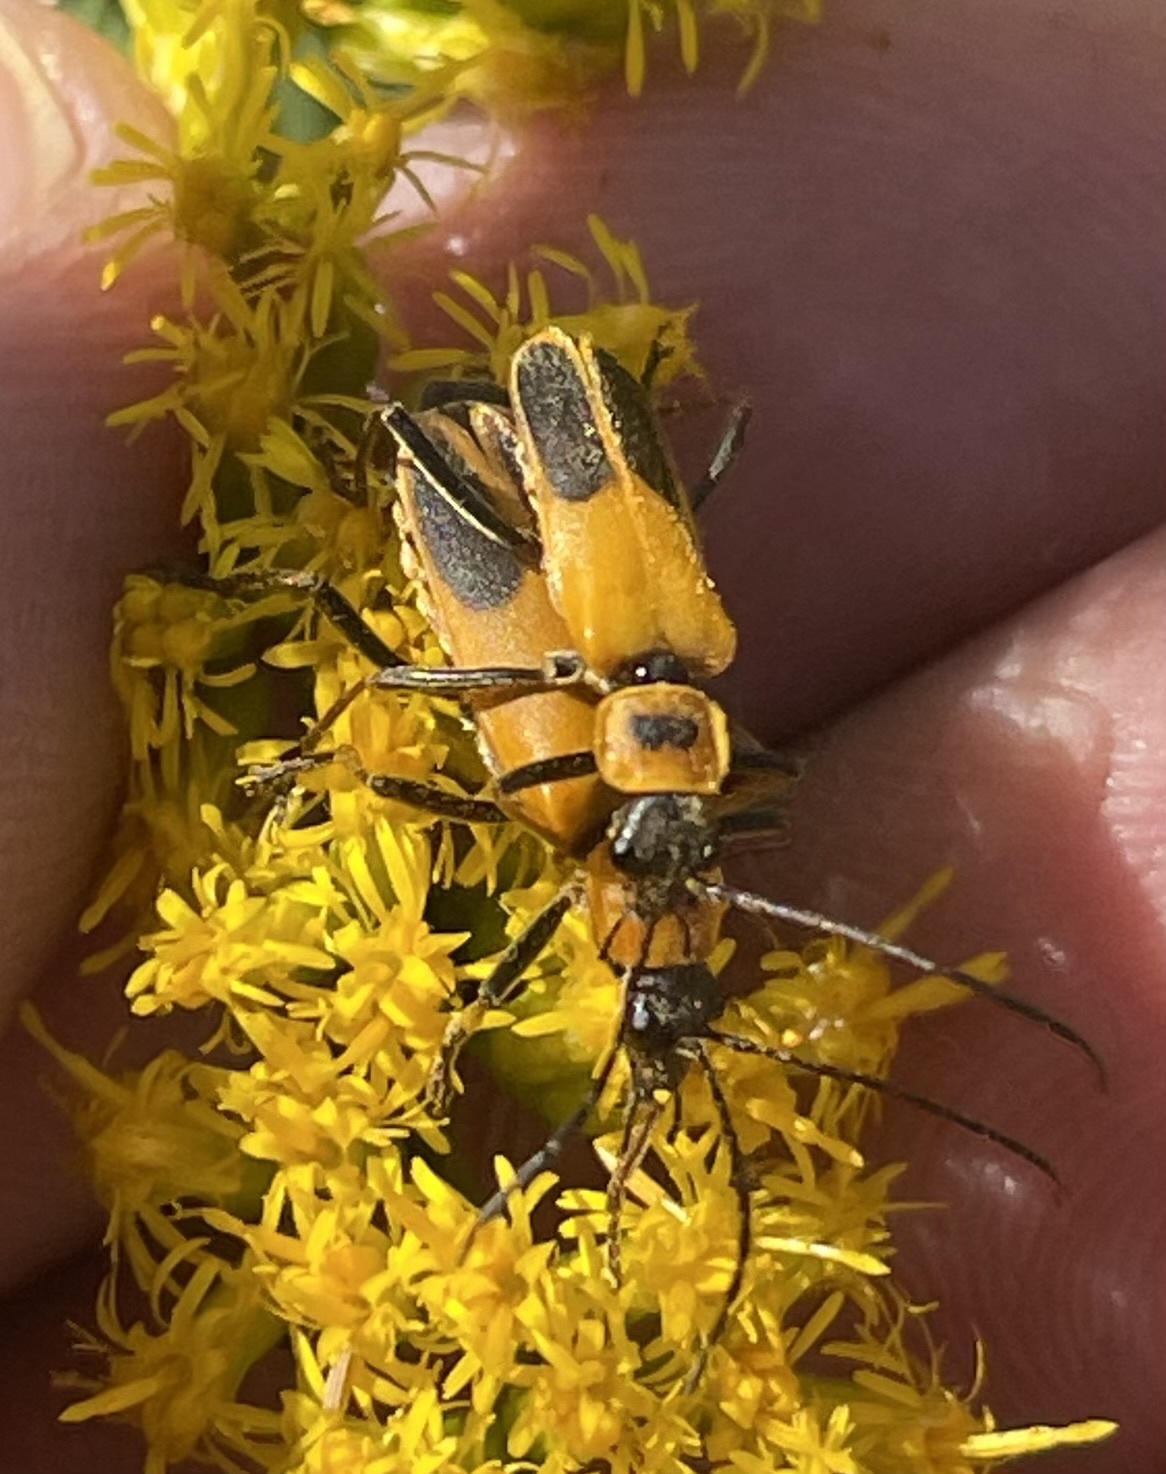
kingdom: Animalia
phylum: Arthropoda
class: Insecta
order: Coleoptera
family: Cantharidae
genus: Chauliognathus
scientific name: Chauliognathus pensylvanicus
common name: Goldenrod soldier beetle
